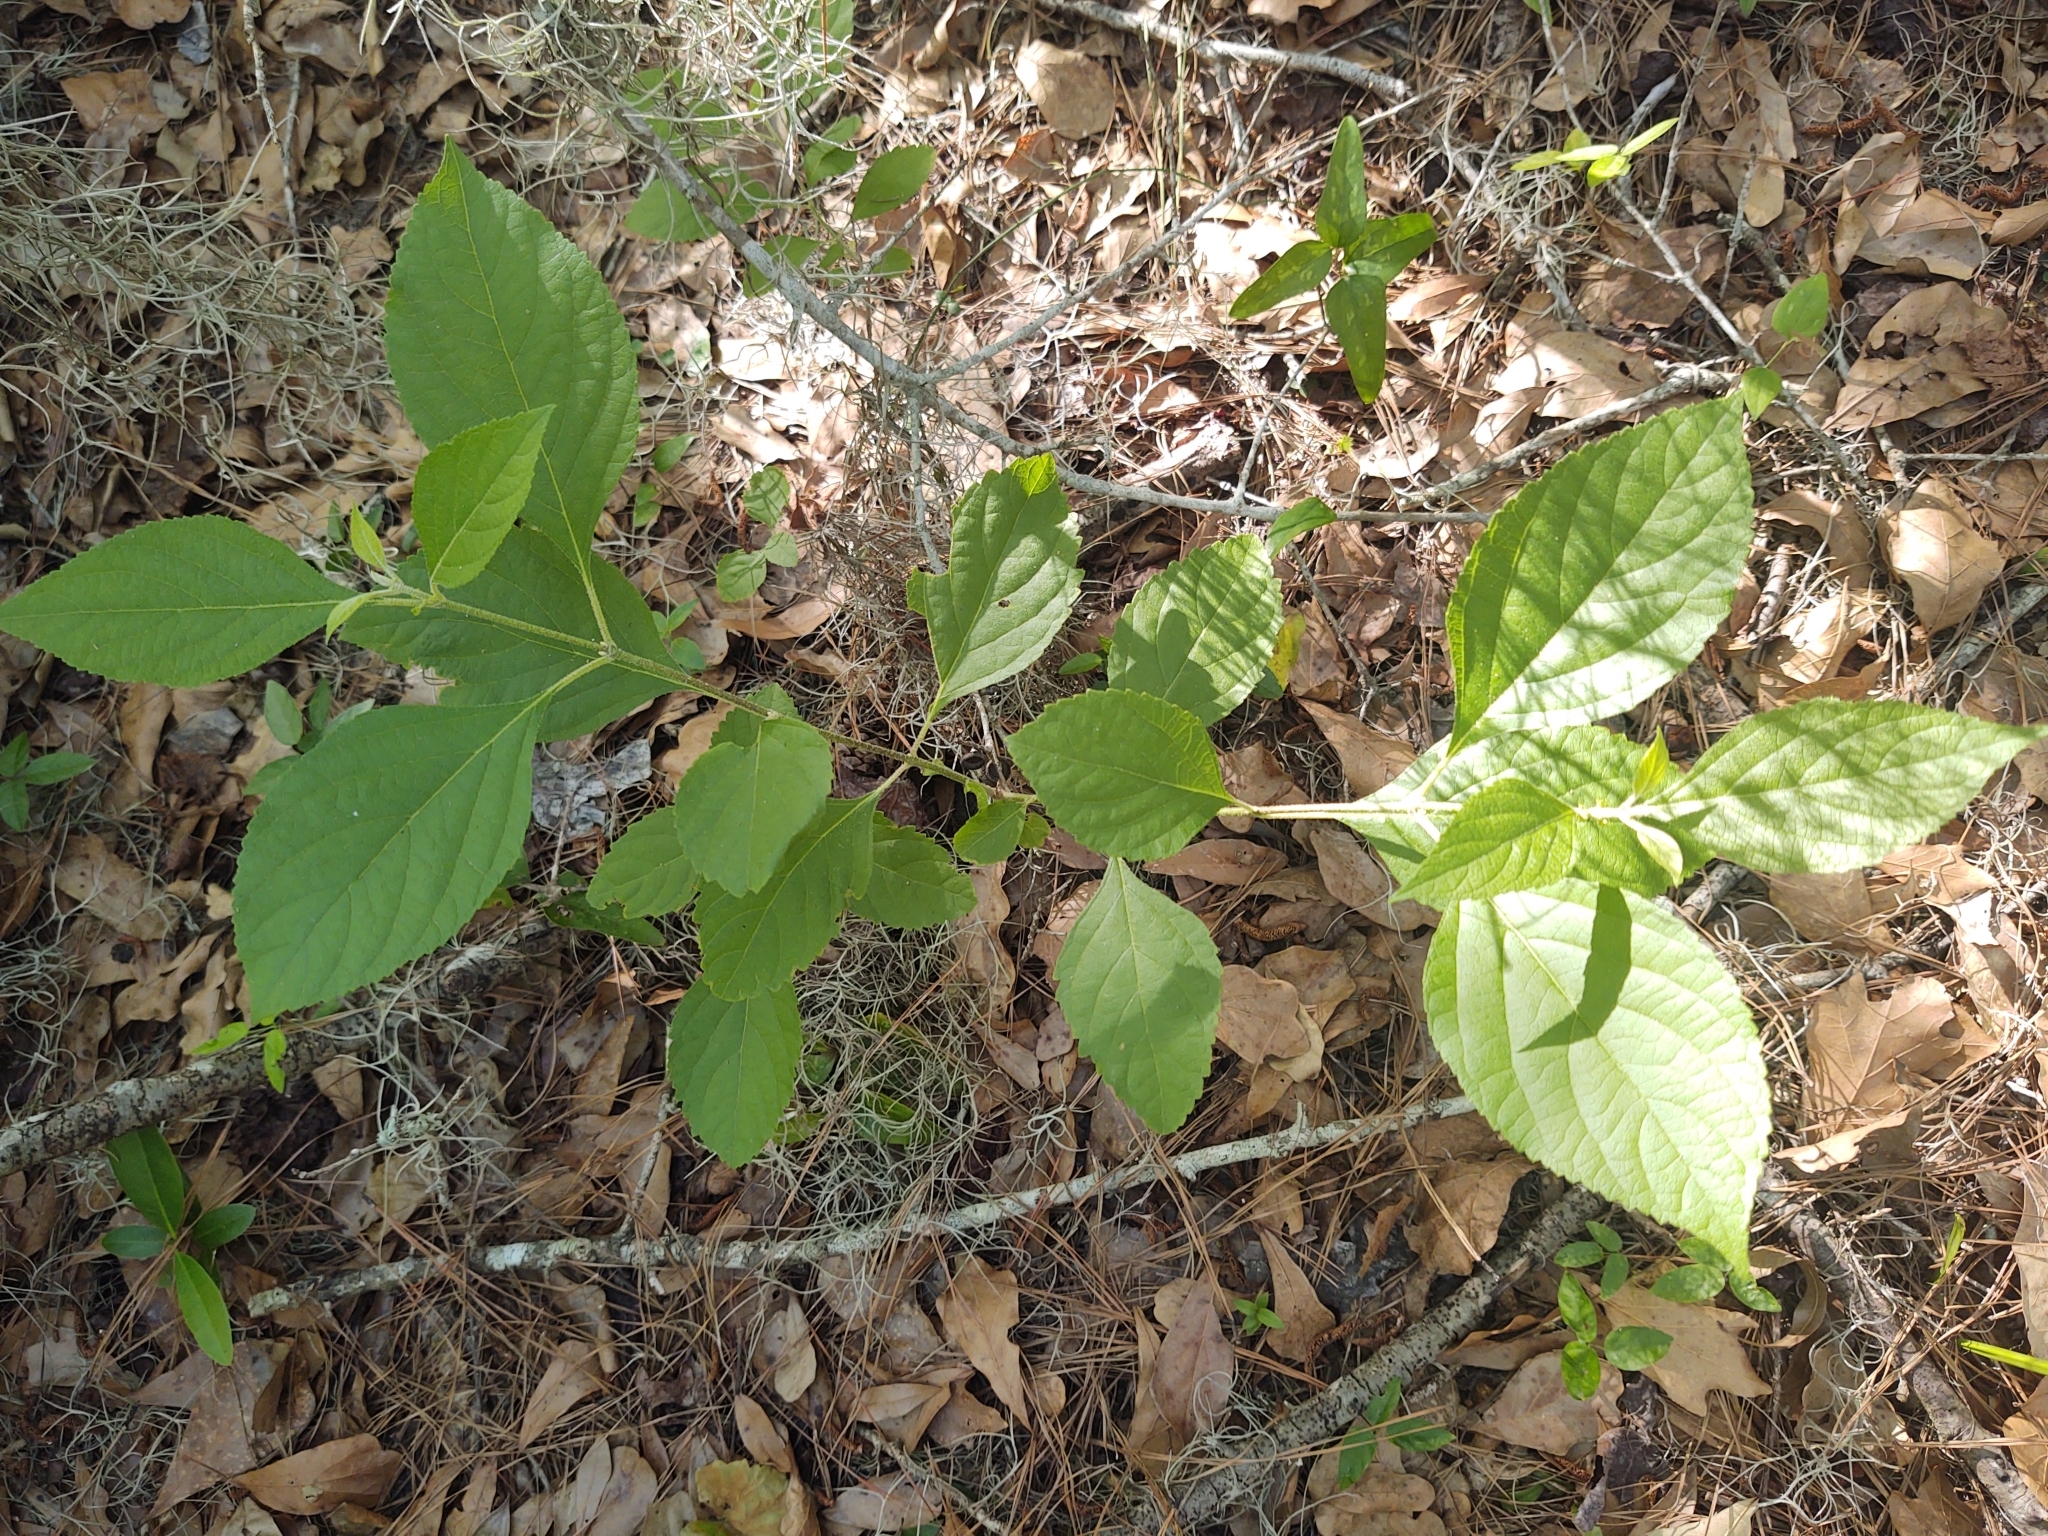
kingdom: Plantae
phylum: Tracheophyta
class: Magnoliopsida
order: Lamiales
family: Lamiaceae
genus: Callicarpa
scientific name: Callicarpa americana
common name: American beautyberry
